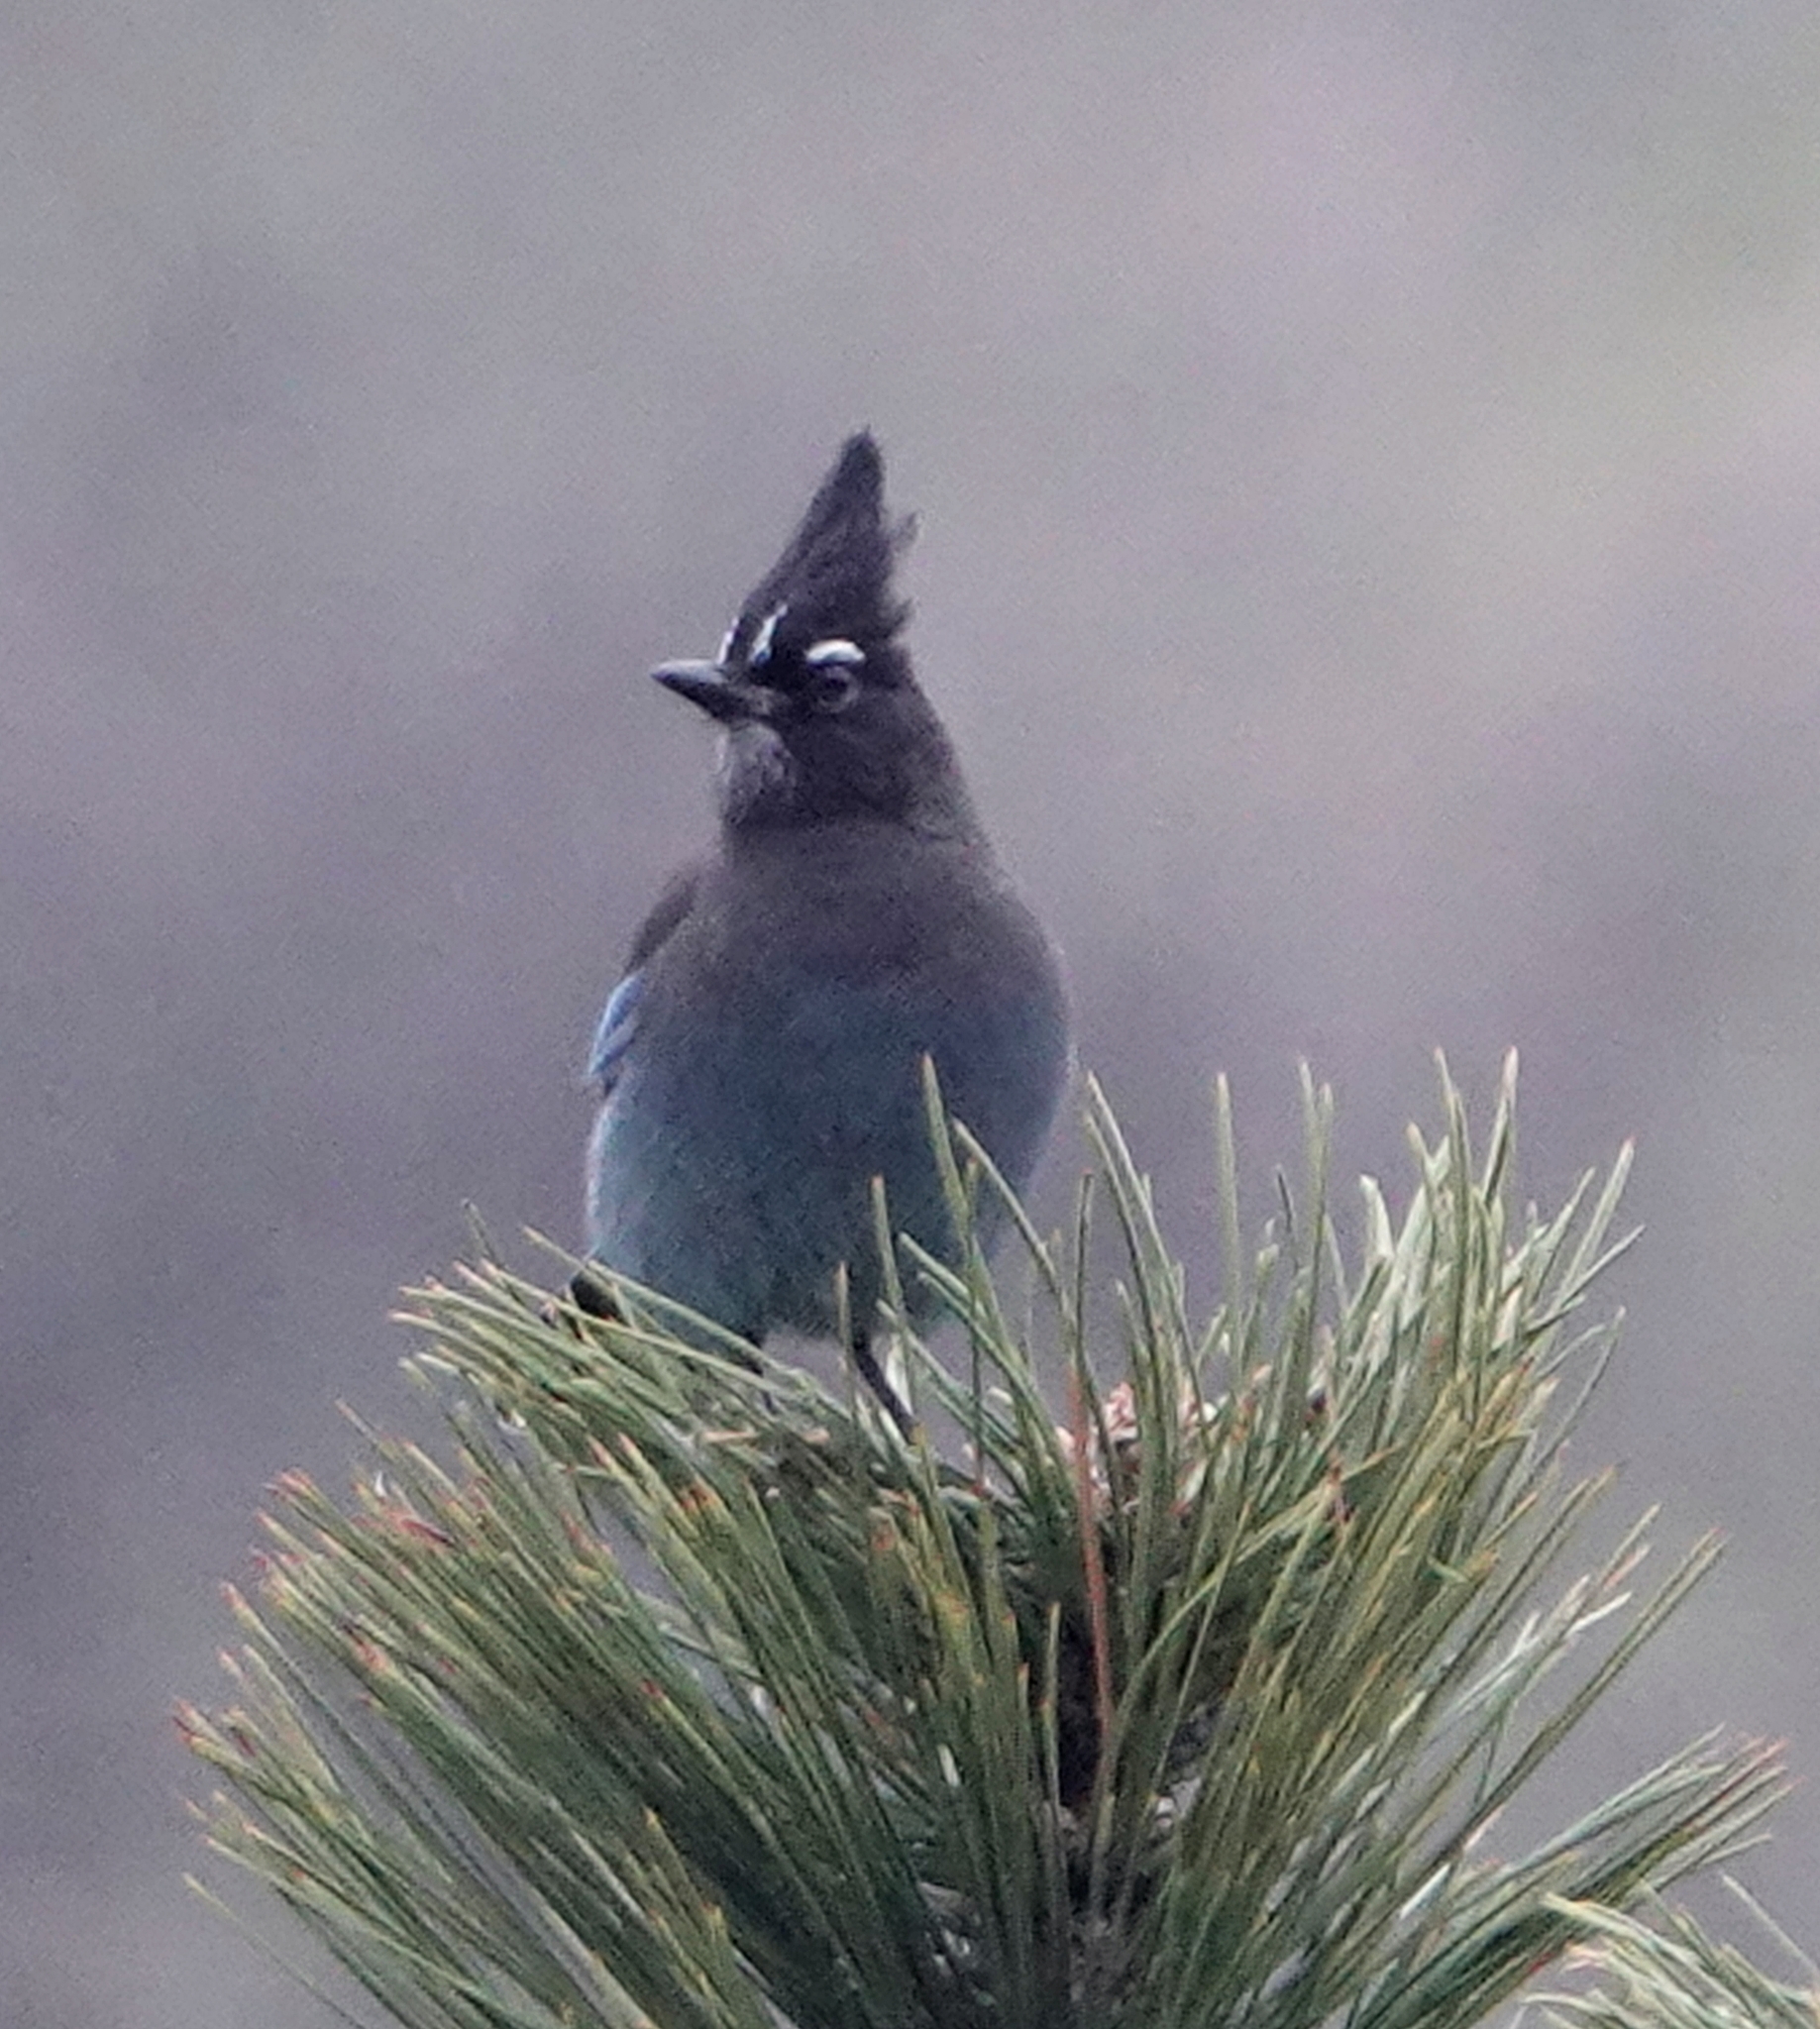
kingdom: Animalia
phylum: Chordata
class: Aves
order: Passeriformes
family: Corvidae
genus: Cyanocitta
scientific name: Cyanocitta stelleri
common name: Steller's jay
